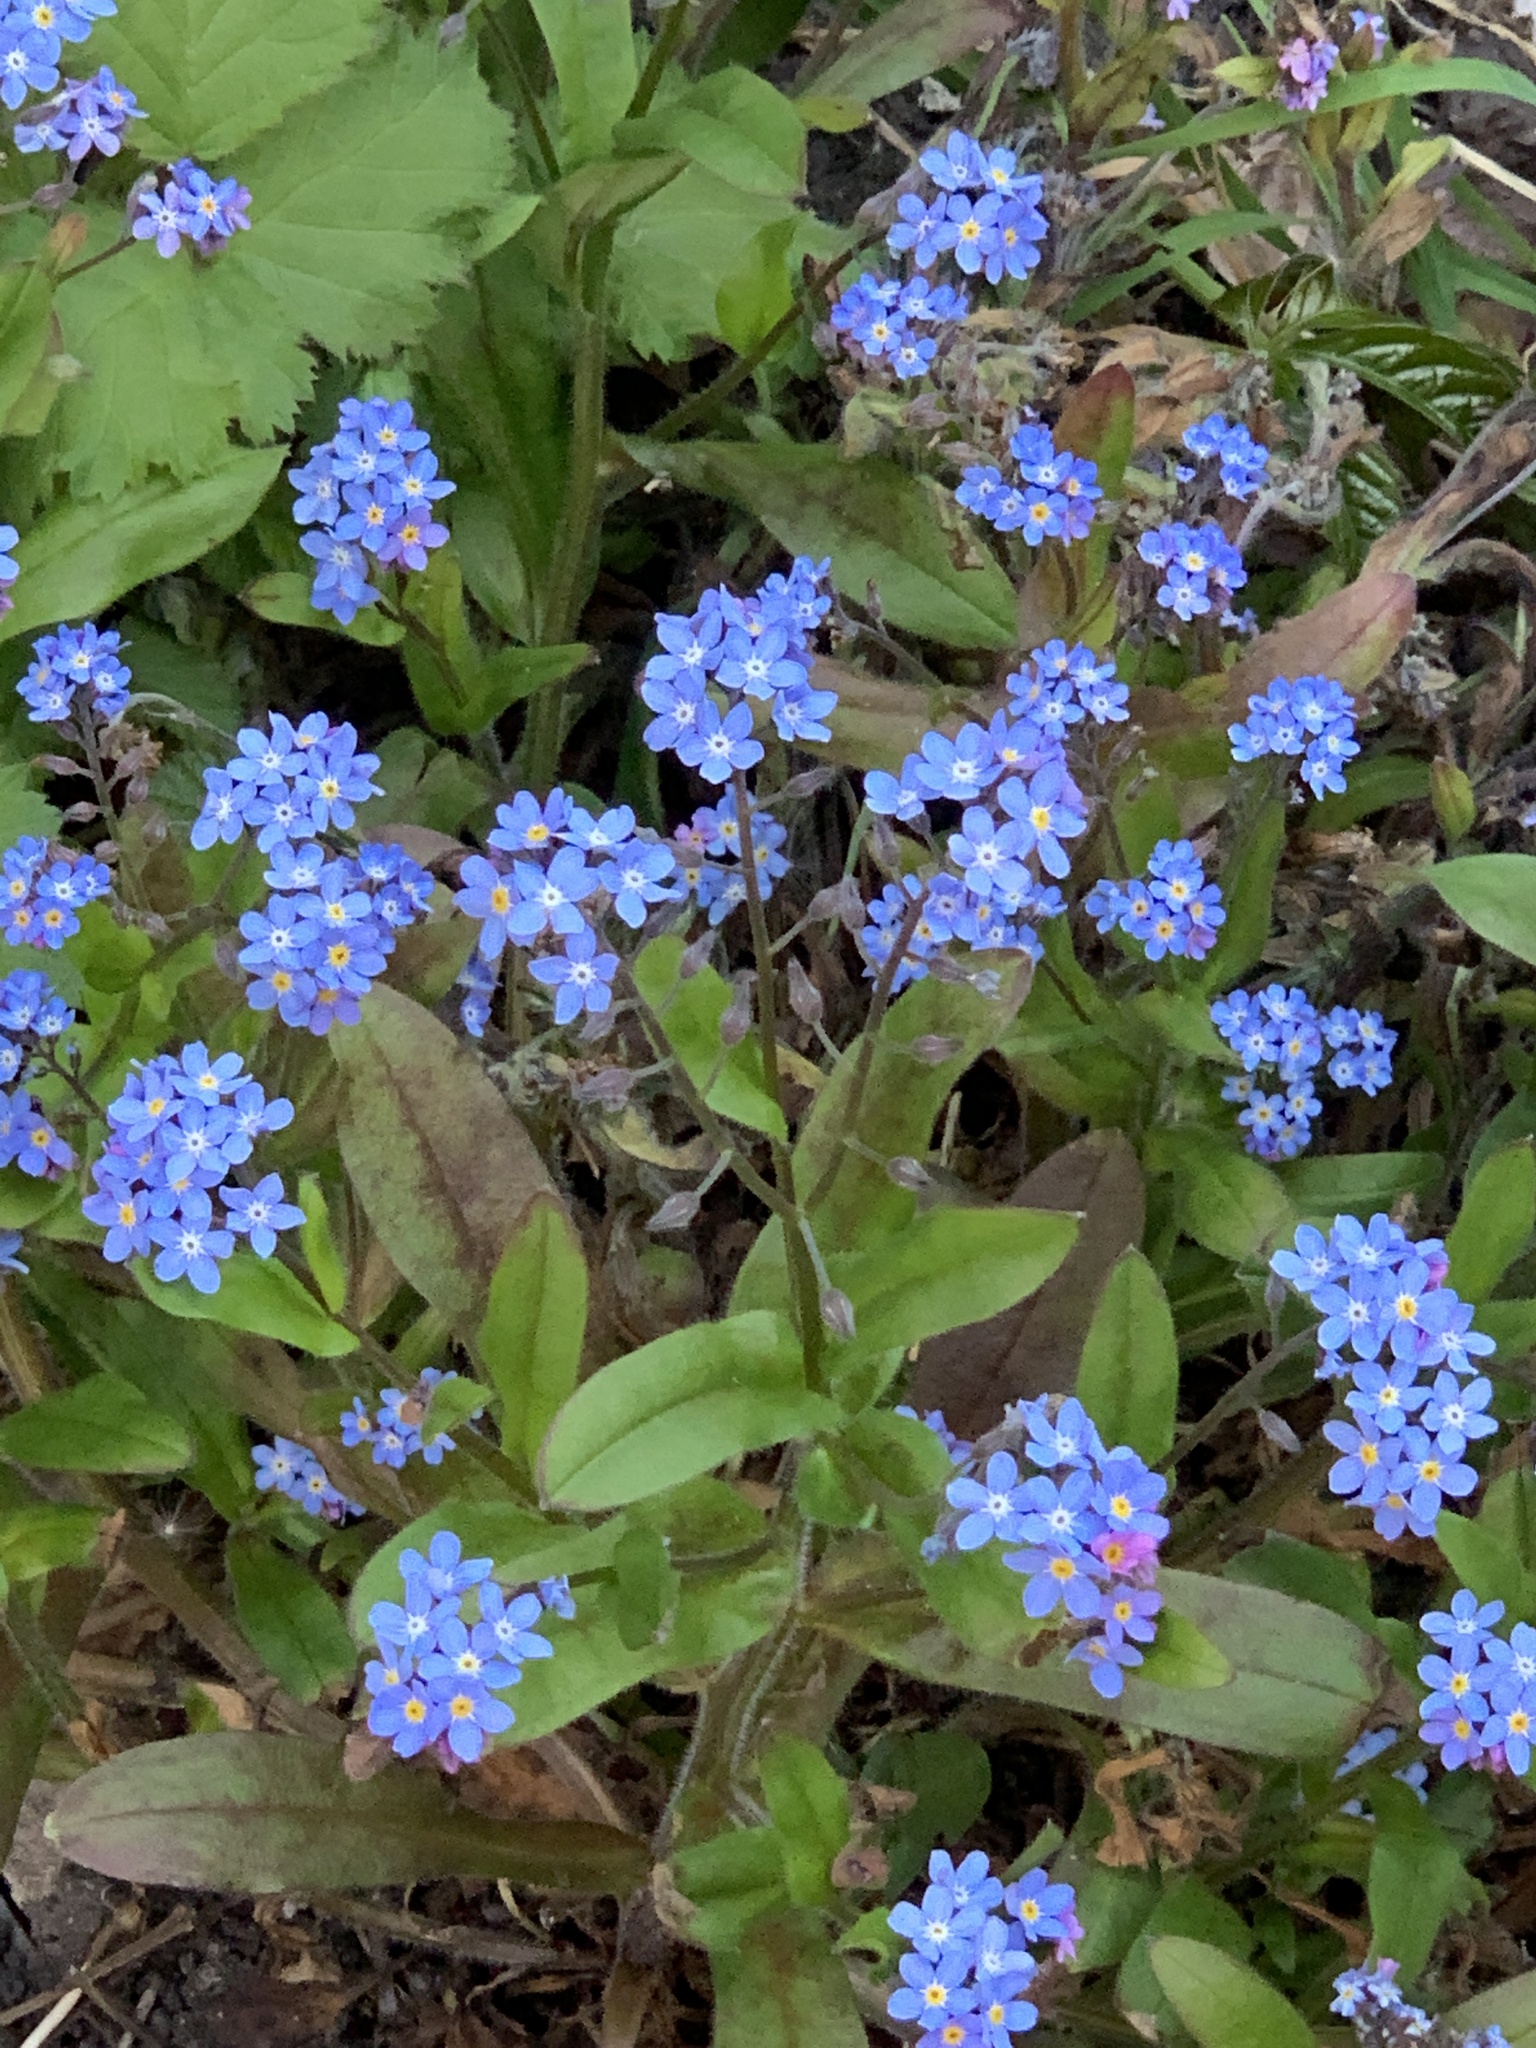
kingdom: Plantae
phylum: Tracheophyta
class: Magnoliopsida
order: Boraginales
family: Boraginaceae
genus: Myosotis
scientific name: Myosotis sylvatica
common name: Wood forget-me-not
